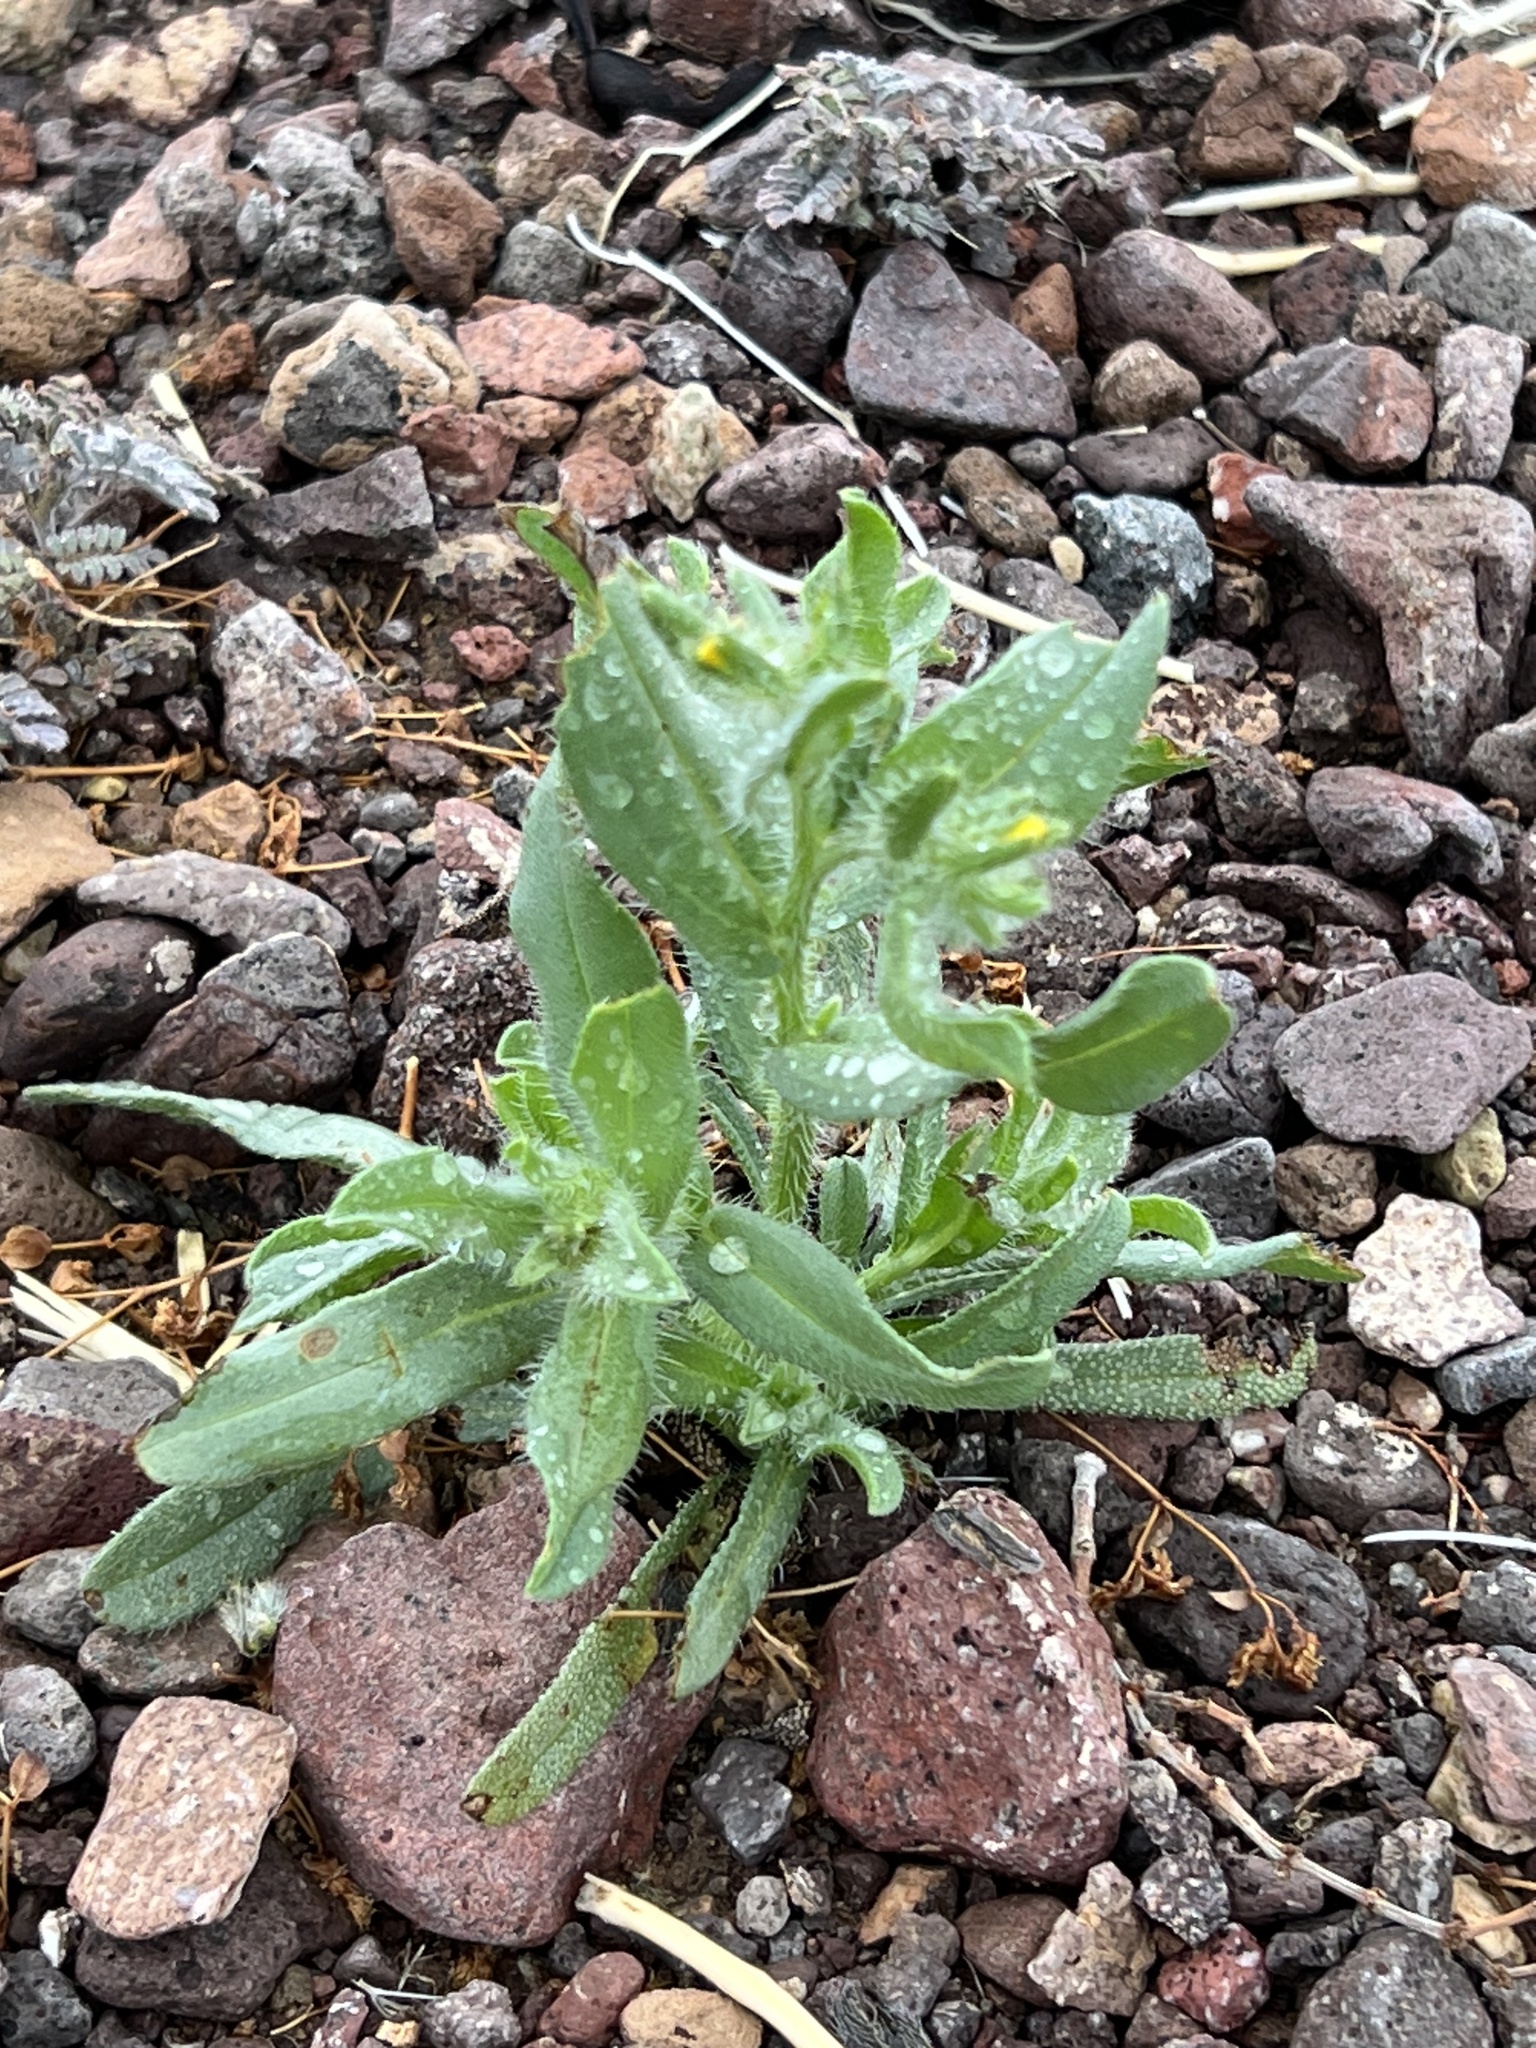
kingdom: Plantae
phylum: Tracheophyta
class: Magnoliopsida
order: Boraginales
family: Boraginaceae
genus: Amsinckia
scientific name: Amsinckia tessellata
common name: Tessellate fiddleneck
